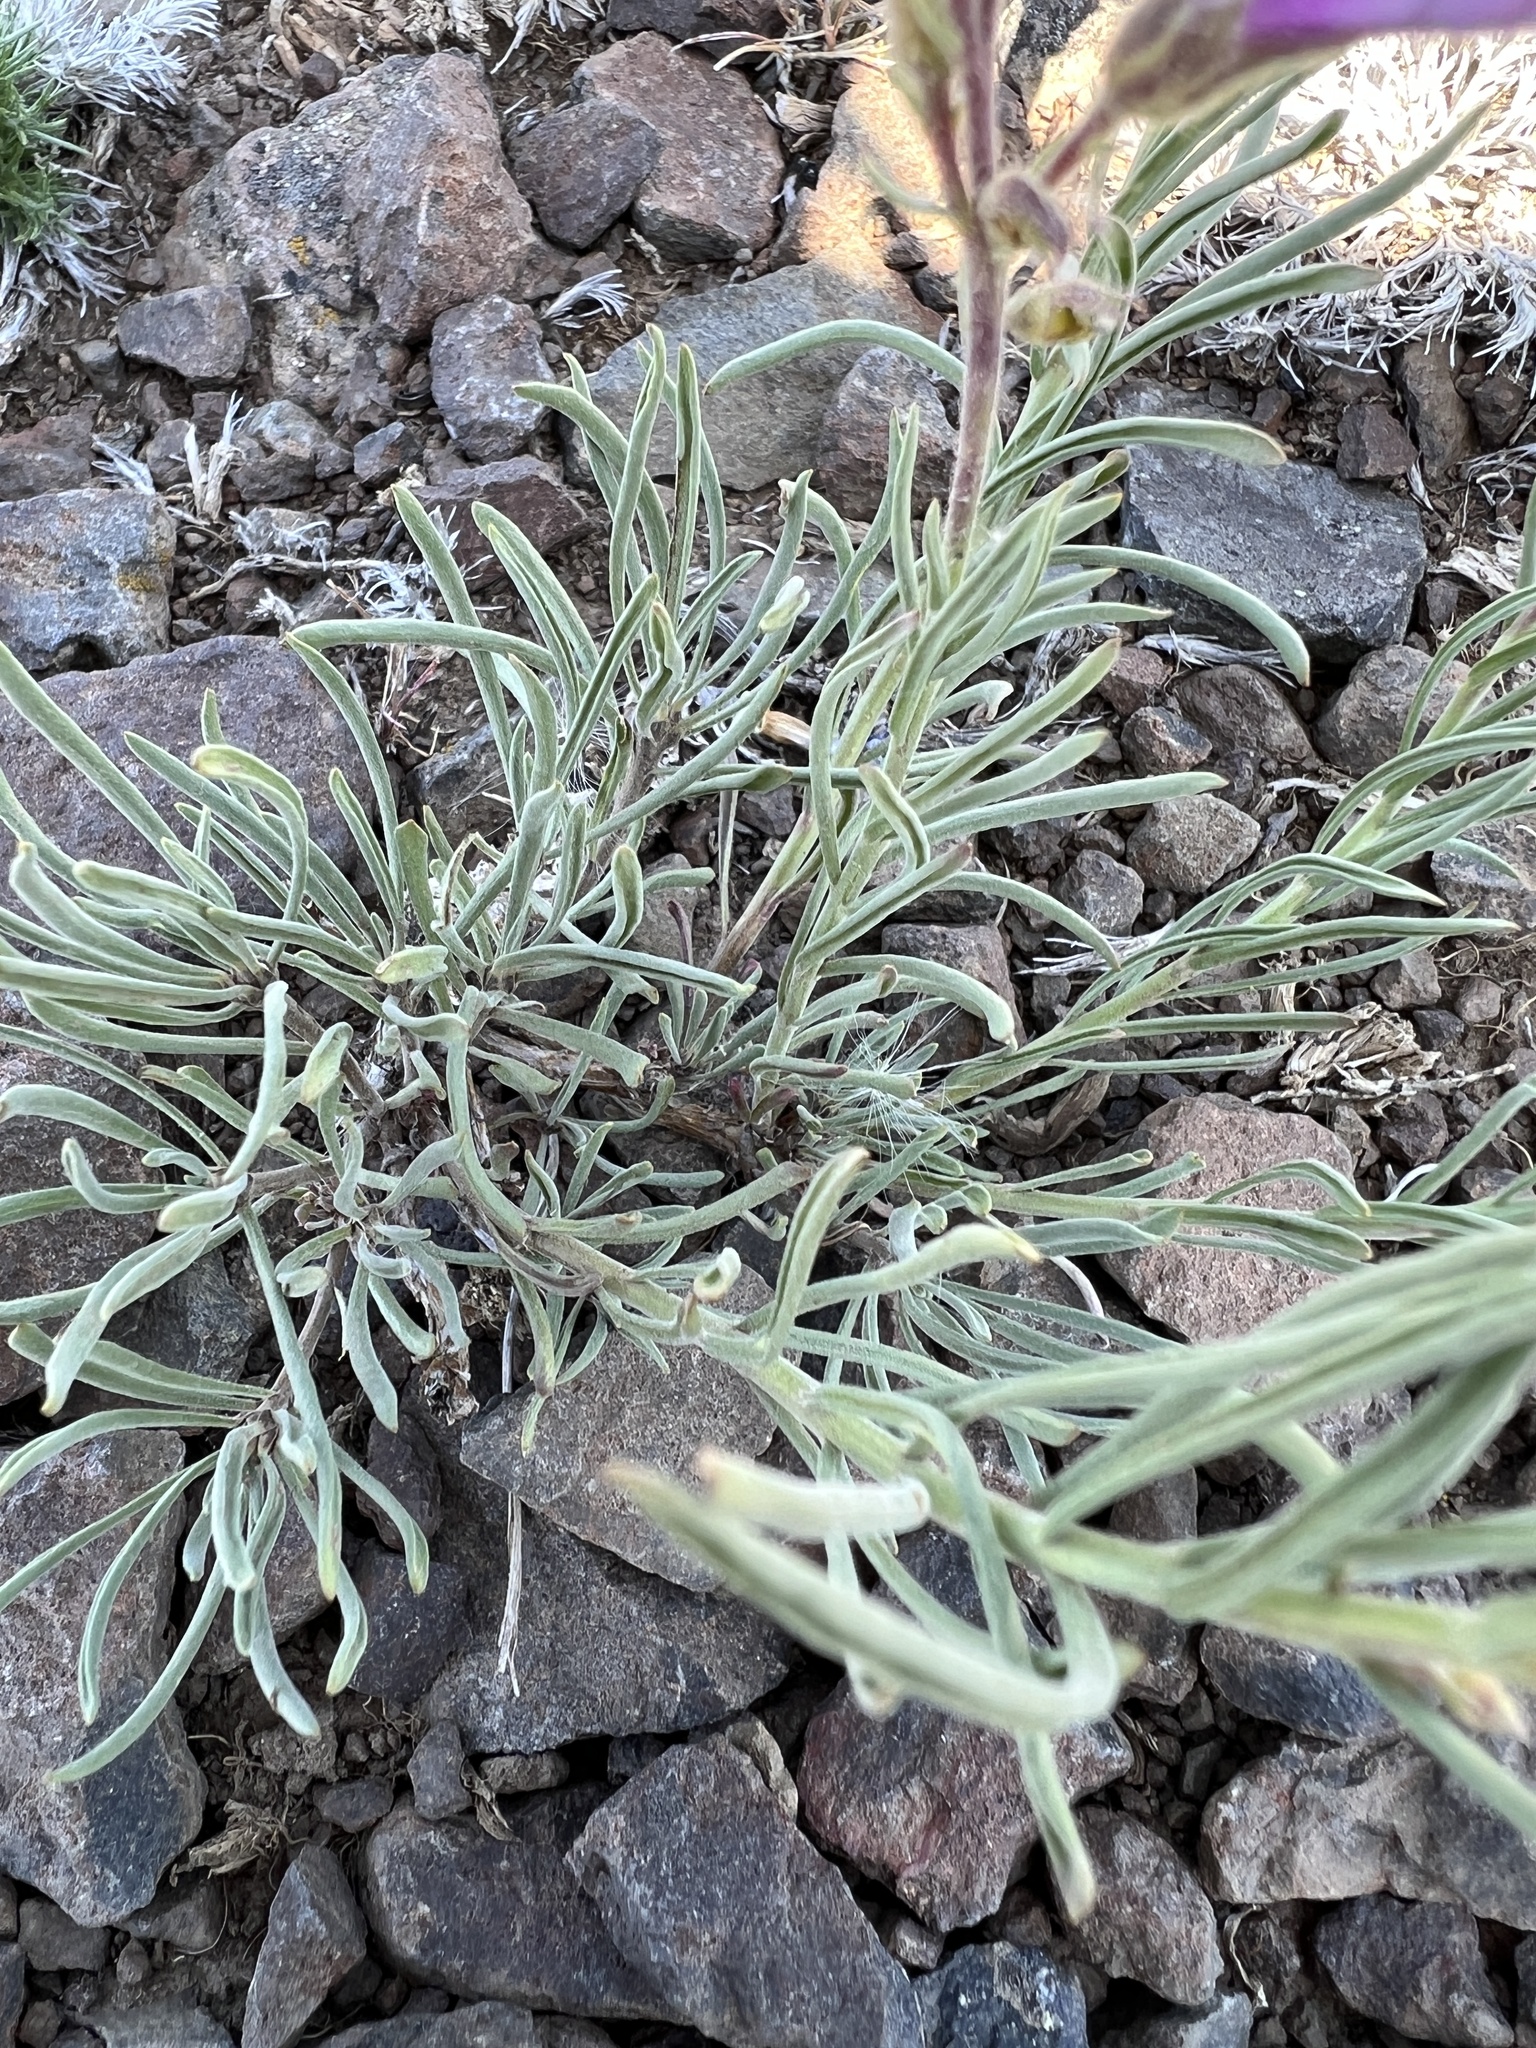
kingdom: Plantae
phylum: Tracheophyta
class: Magnoliopsida
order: Lamiales
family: Plantaginaceae
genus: Penstemon
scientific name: Penstemon gairdneri
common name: Gairdner's penstemon
